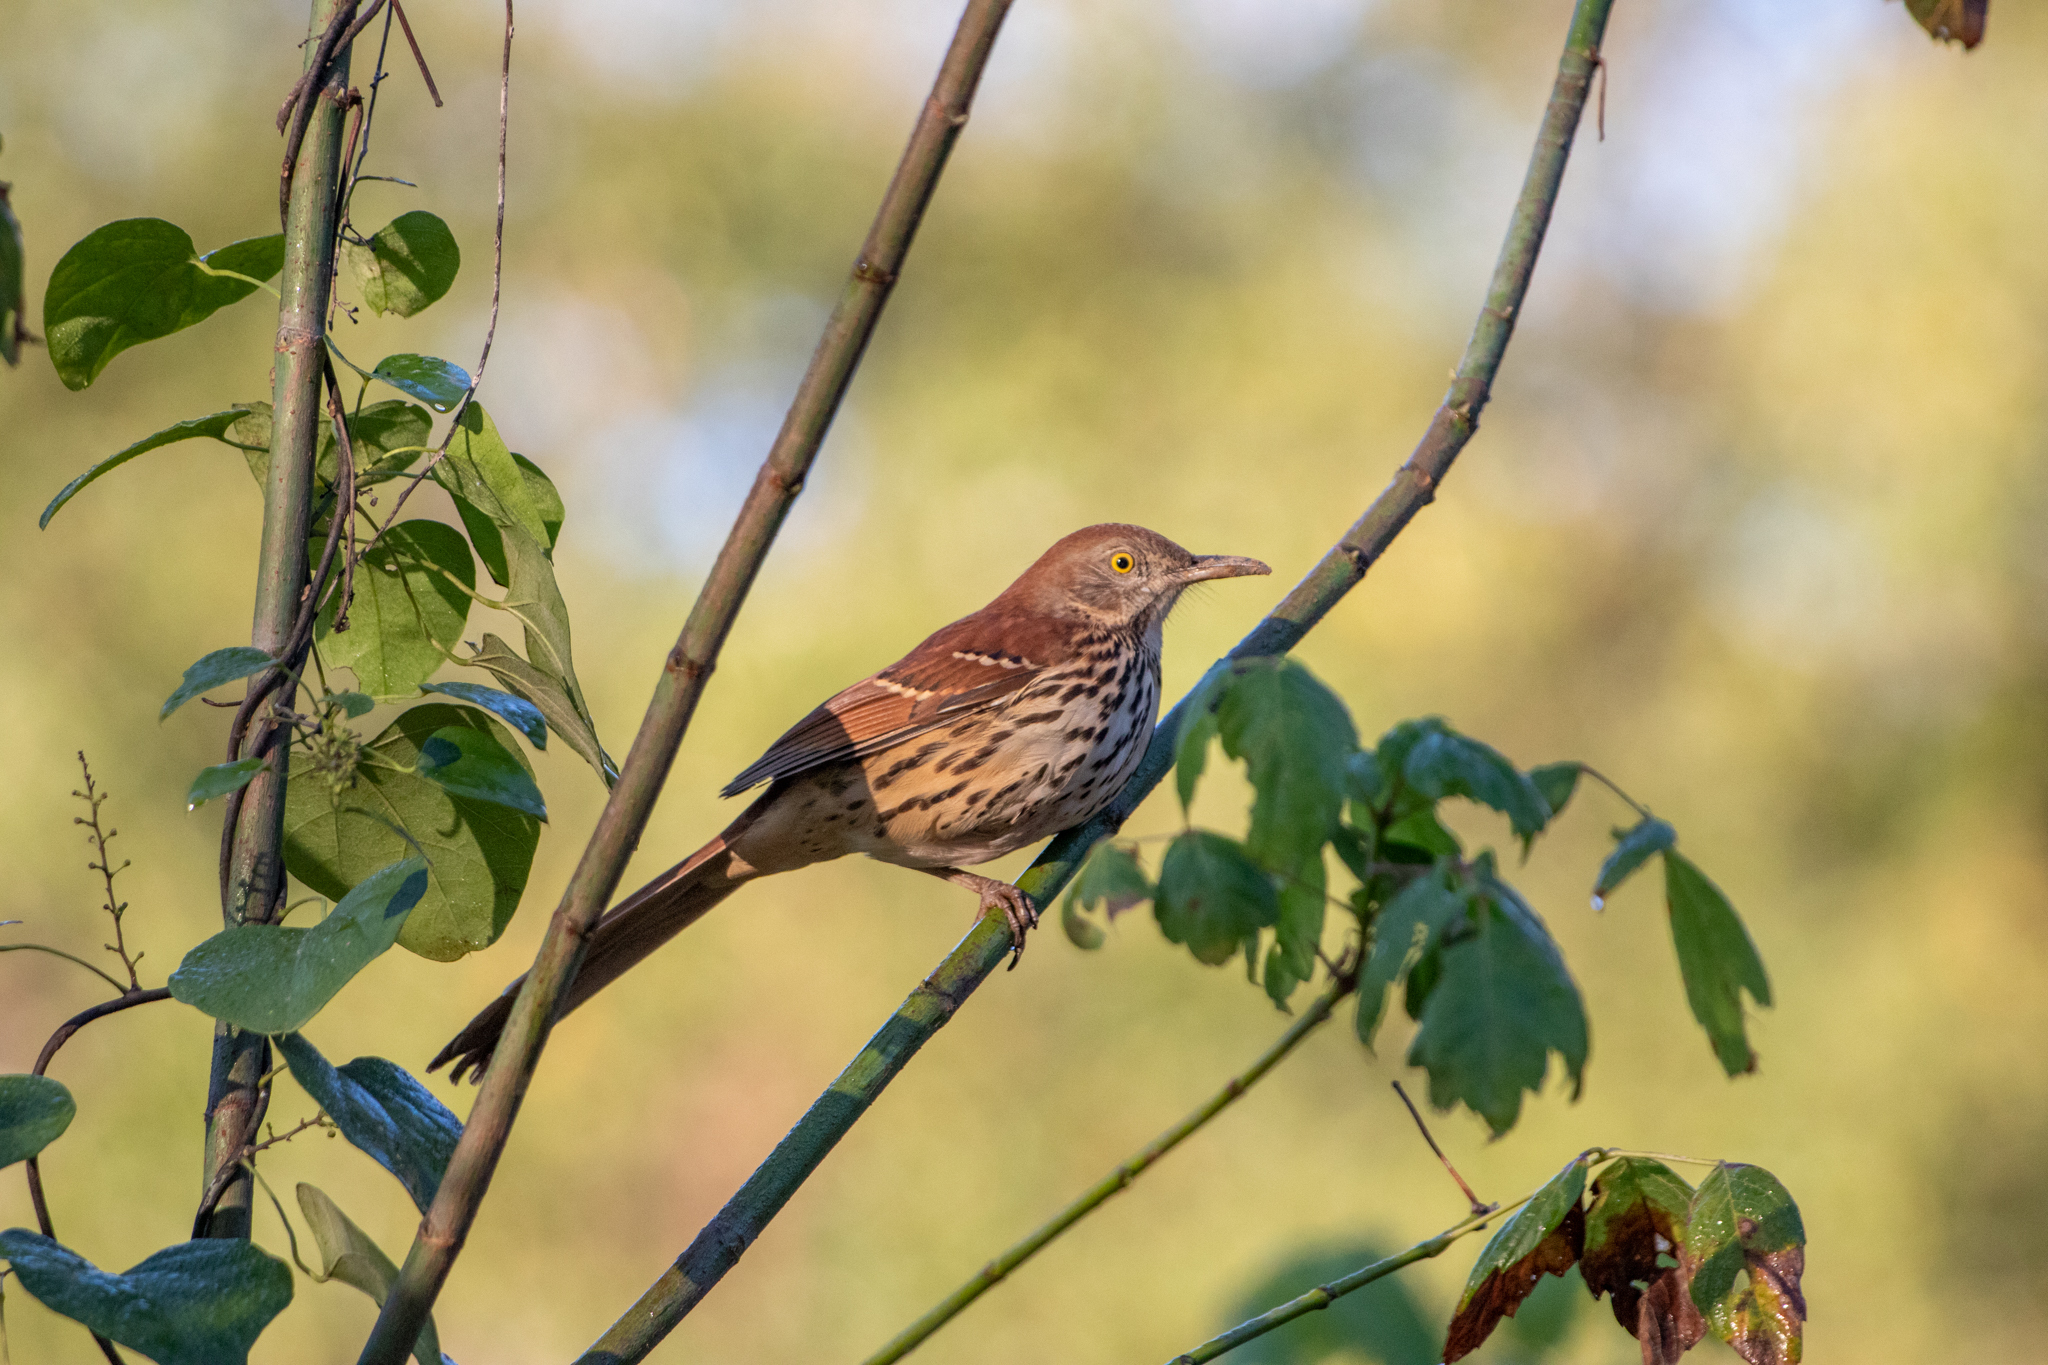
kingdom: Animalia
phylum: Chordata
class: Aves
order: Passeriformes
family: Mimidae
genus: Toxostoma
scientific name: Toxostoma rufum
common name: Brown thrasher
